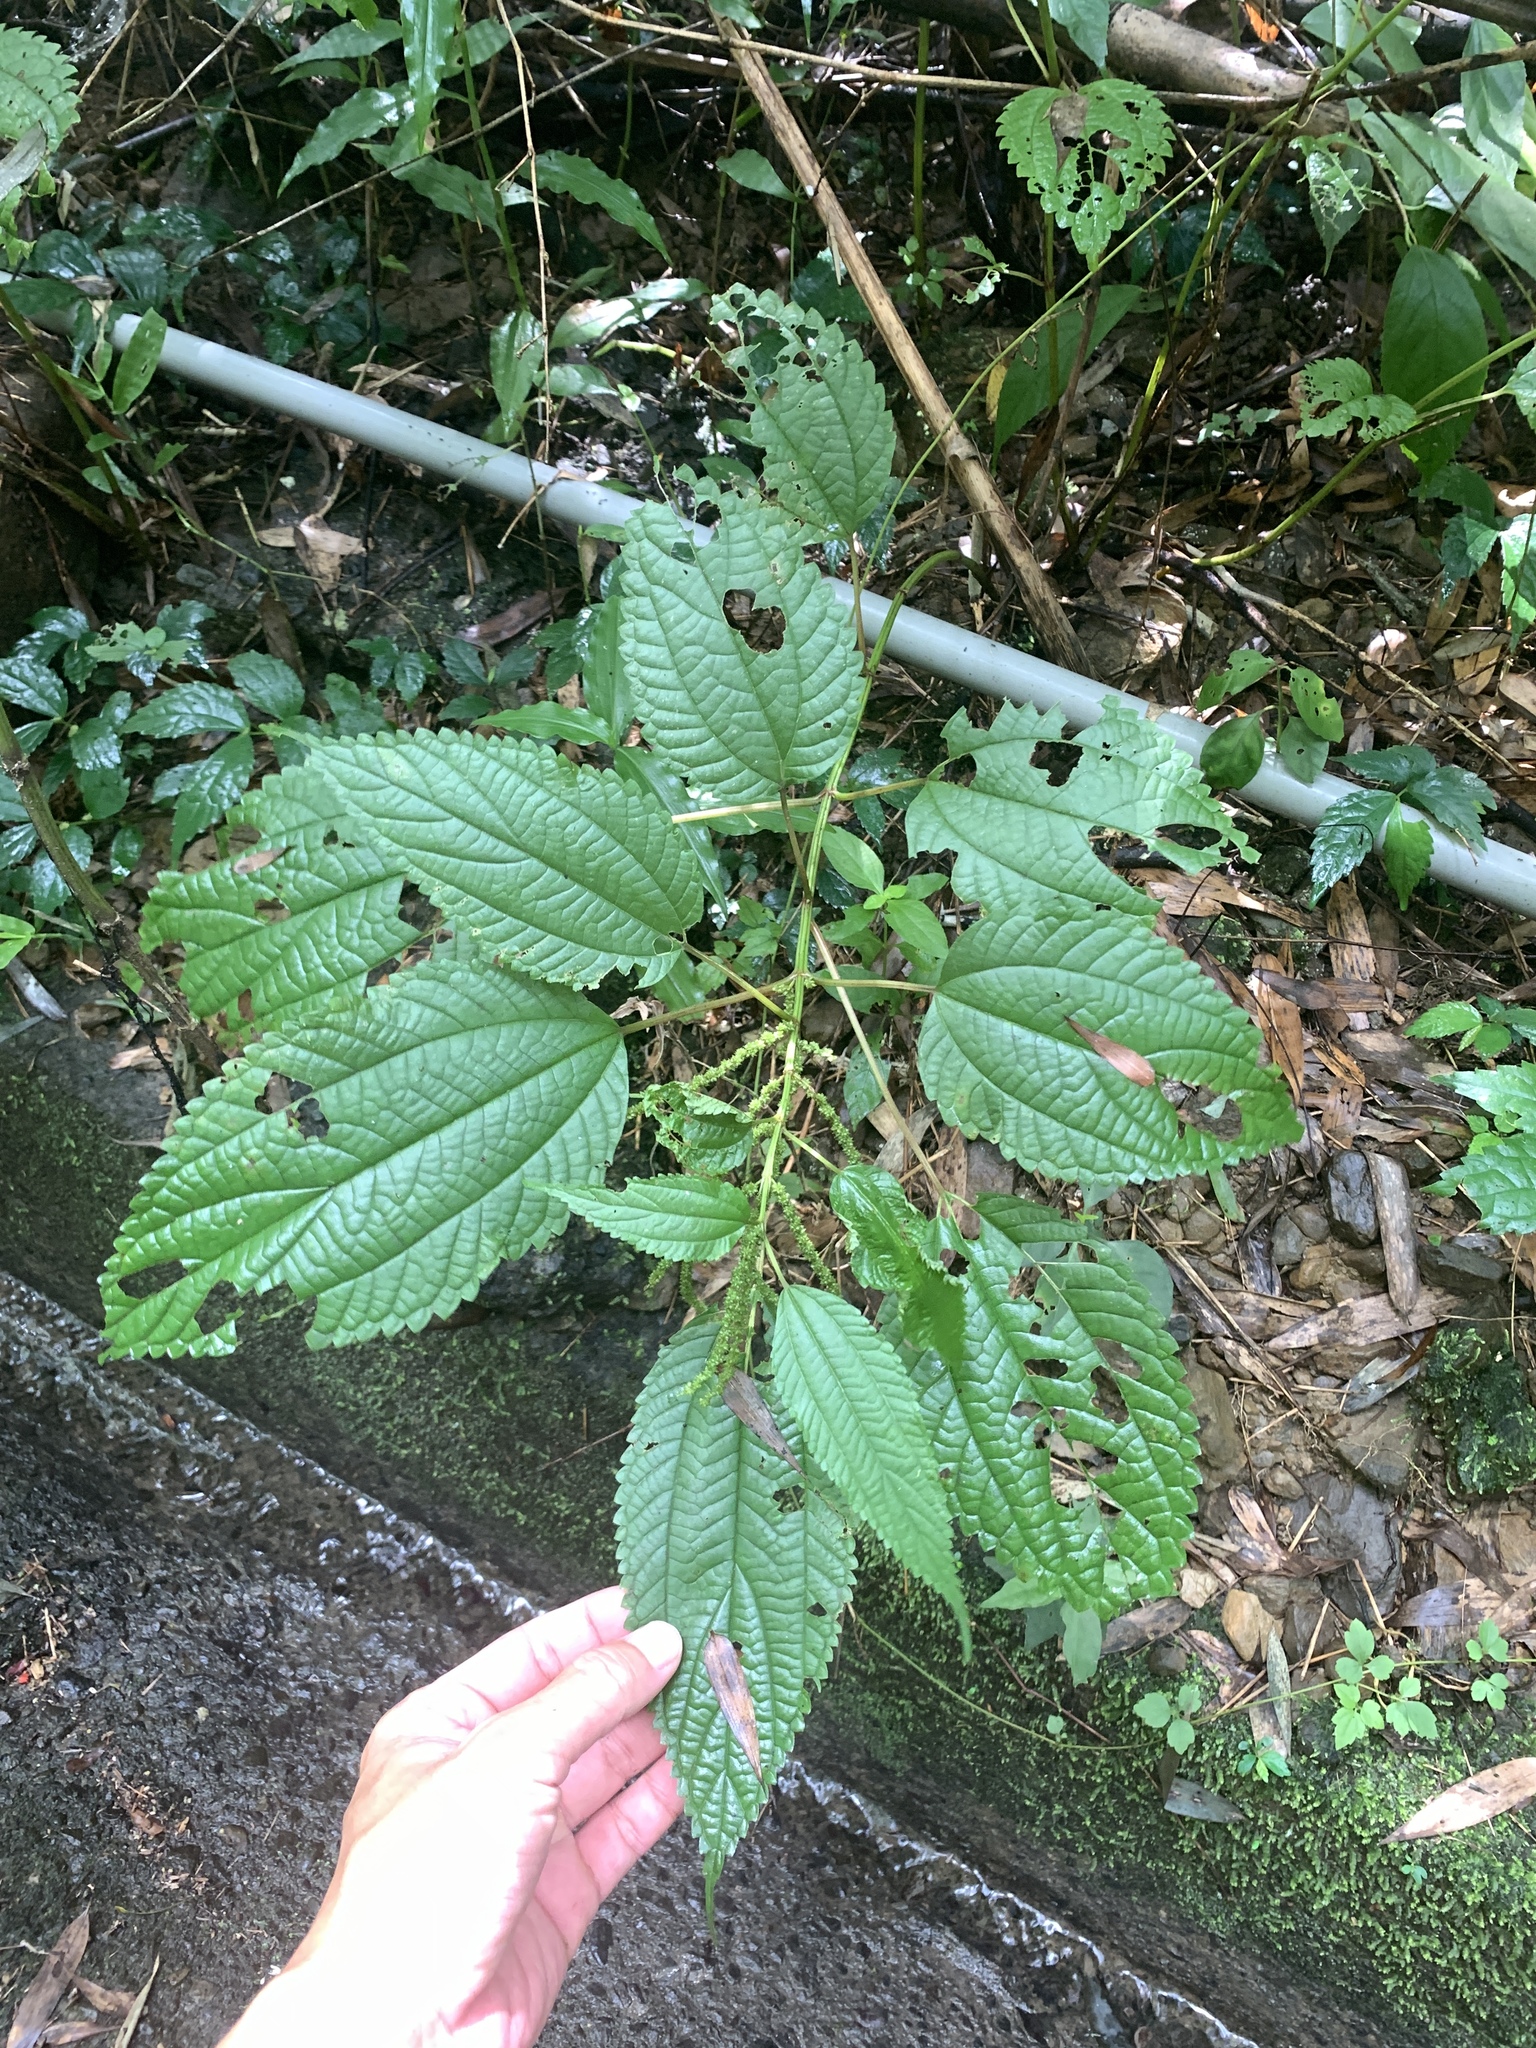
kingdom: Plantae
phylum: Tracheophyta
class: Magnoliopsida
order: Rosales
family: Urticaceae
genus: Boehmeria
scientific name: Boehmeria sieboldiana
